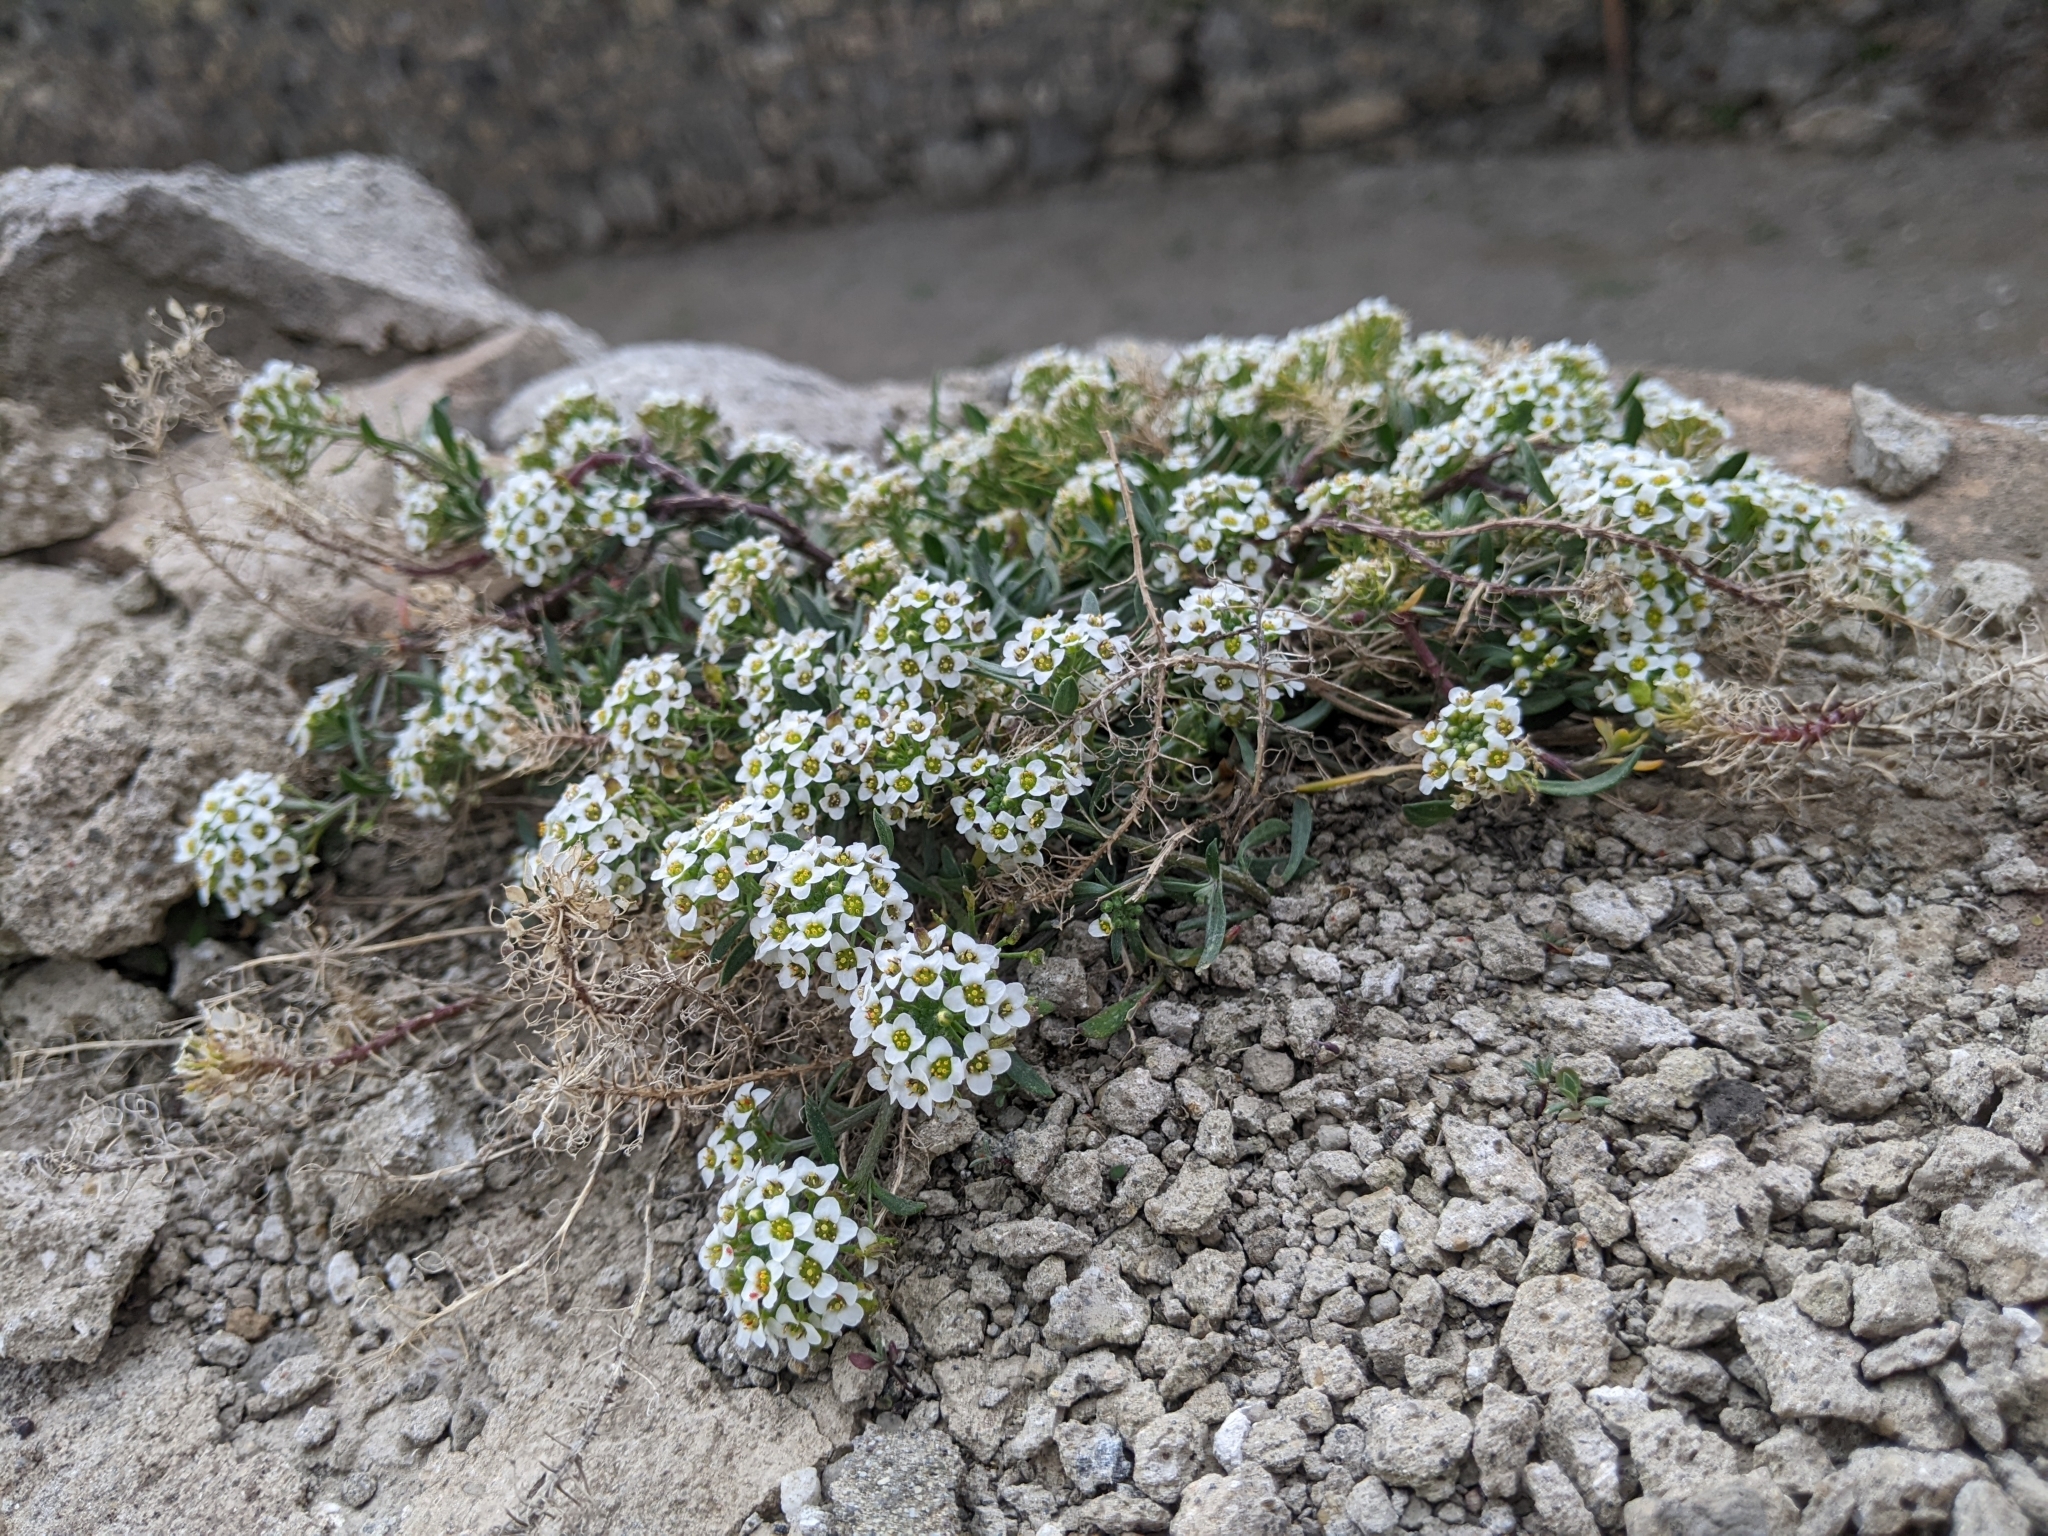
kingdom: Plantae
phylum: Tracheophyta
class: Magnoliopsida
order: Brassicales
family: Brassicaceae
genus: Lobularia
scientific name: Lobularia maritima
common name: Sweet alison
